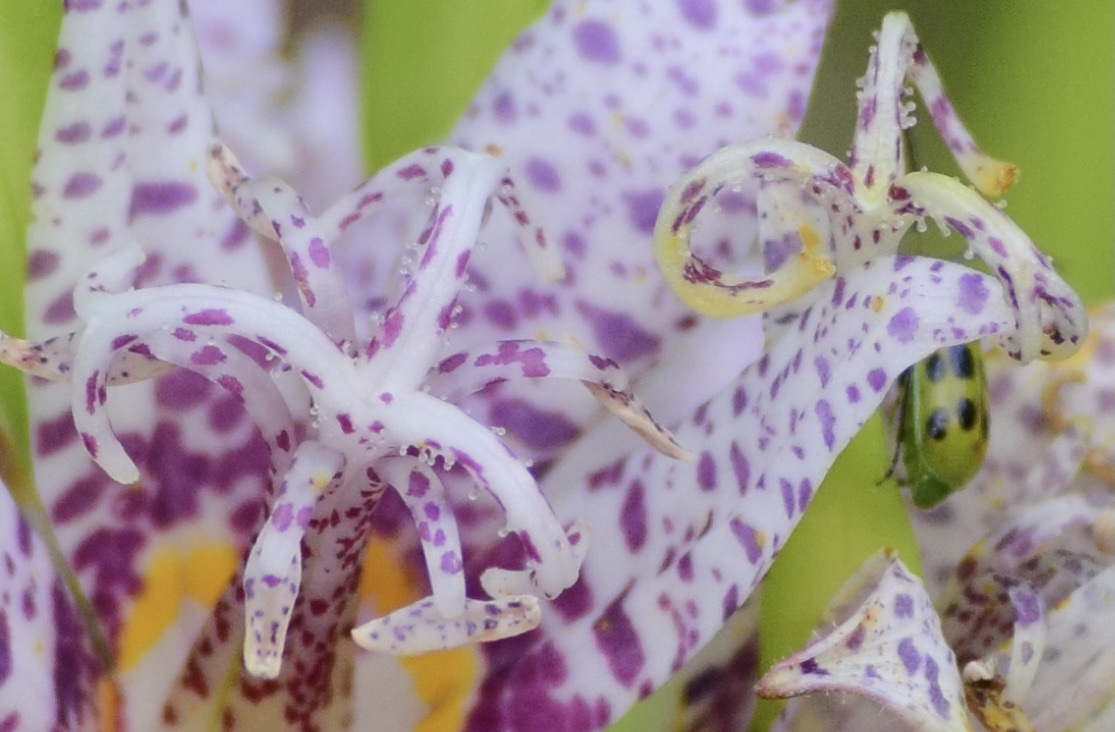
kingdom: Animalia
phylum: Arthropoda
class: Insecta
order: Coleoptera
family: Chrysomelidae
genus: Diabrotica
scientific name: Diabrotica undecimpunctata
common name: Spotted cucumber beetle
